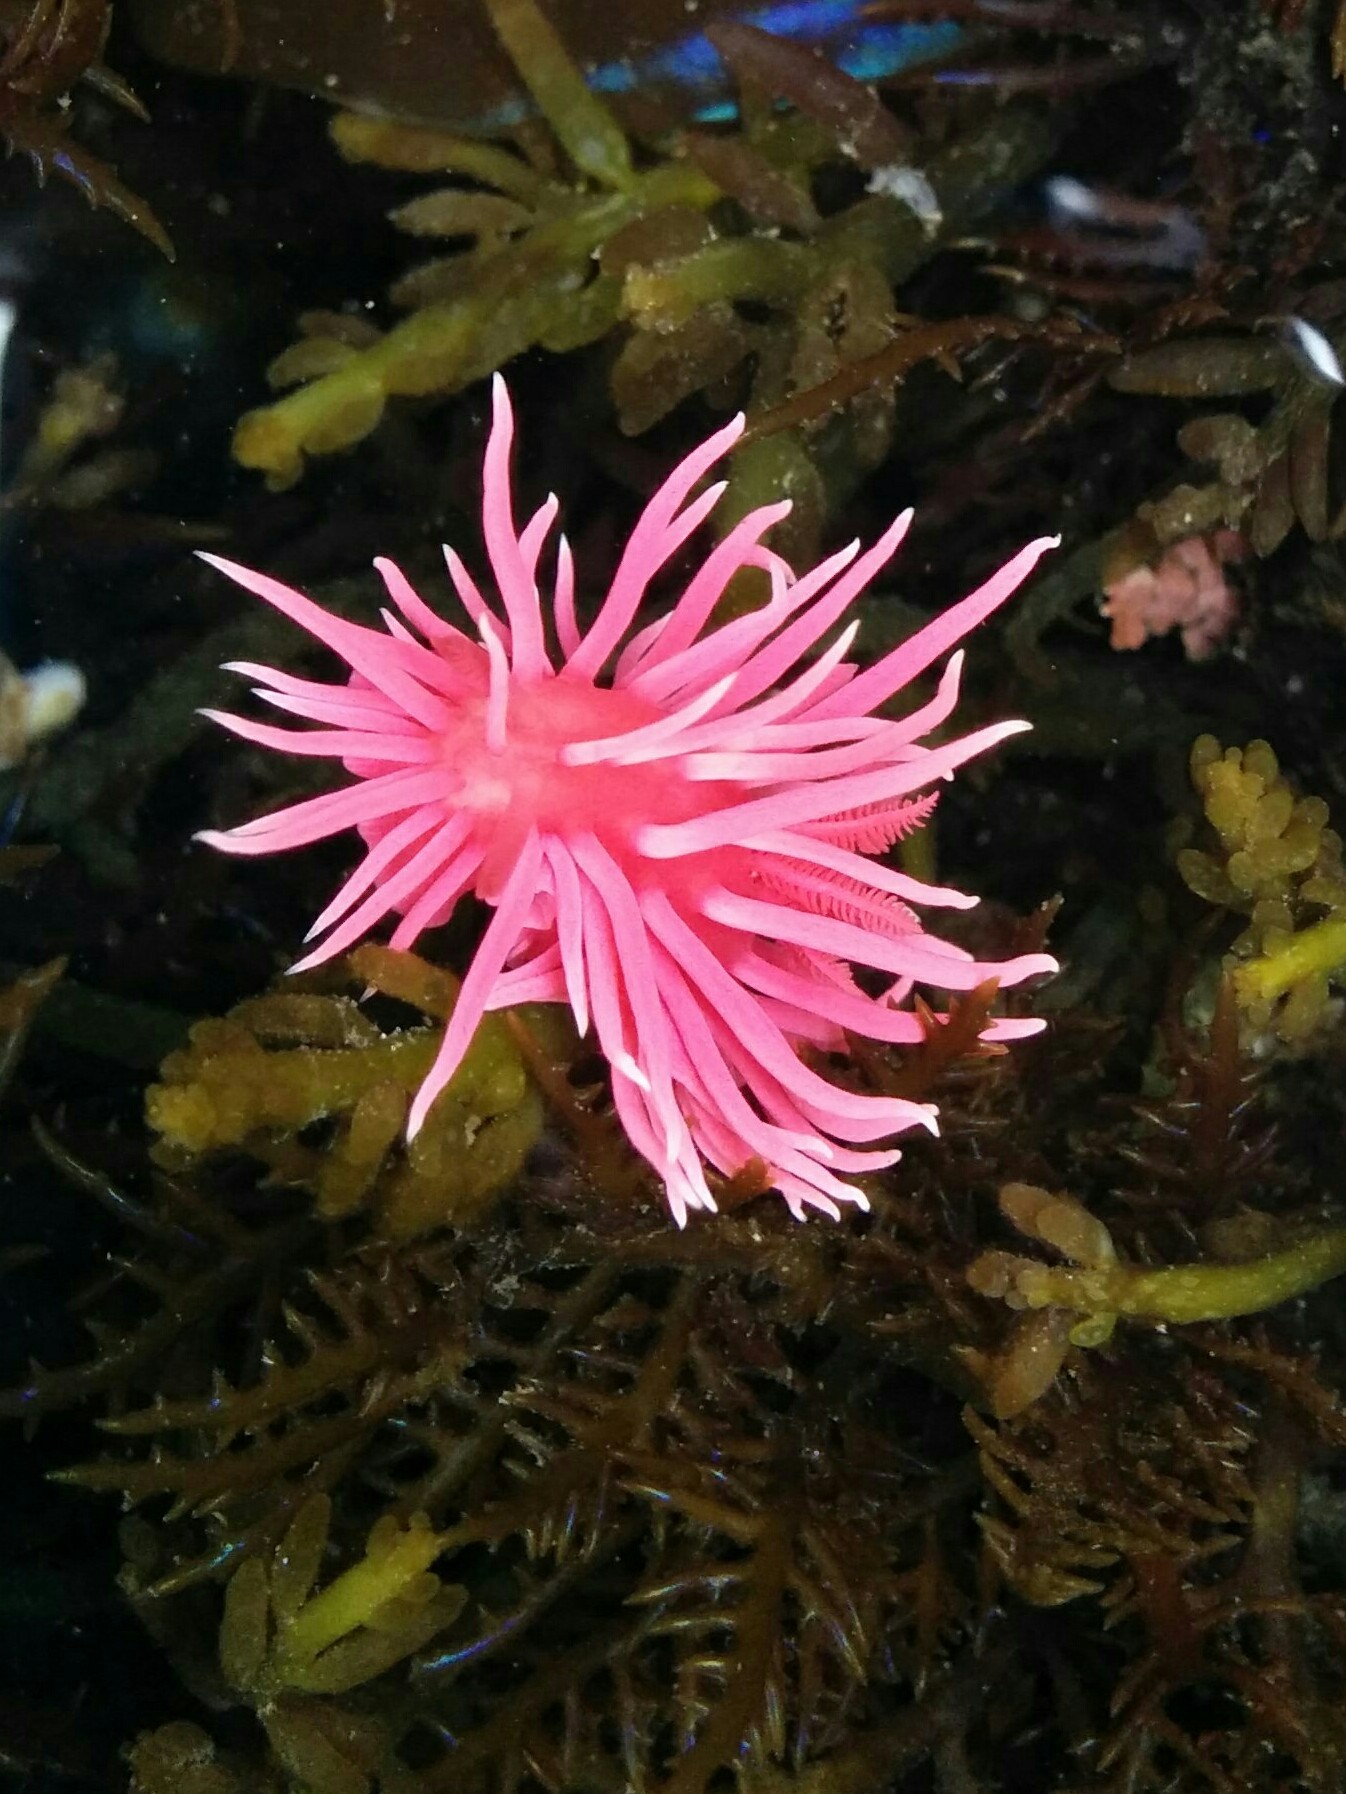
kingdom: Animalia
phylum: Mollusca
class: Gastropoda
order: Nudibranchia
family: Goniodorididae
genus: Okenia
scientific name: Okenia
